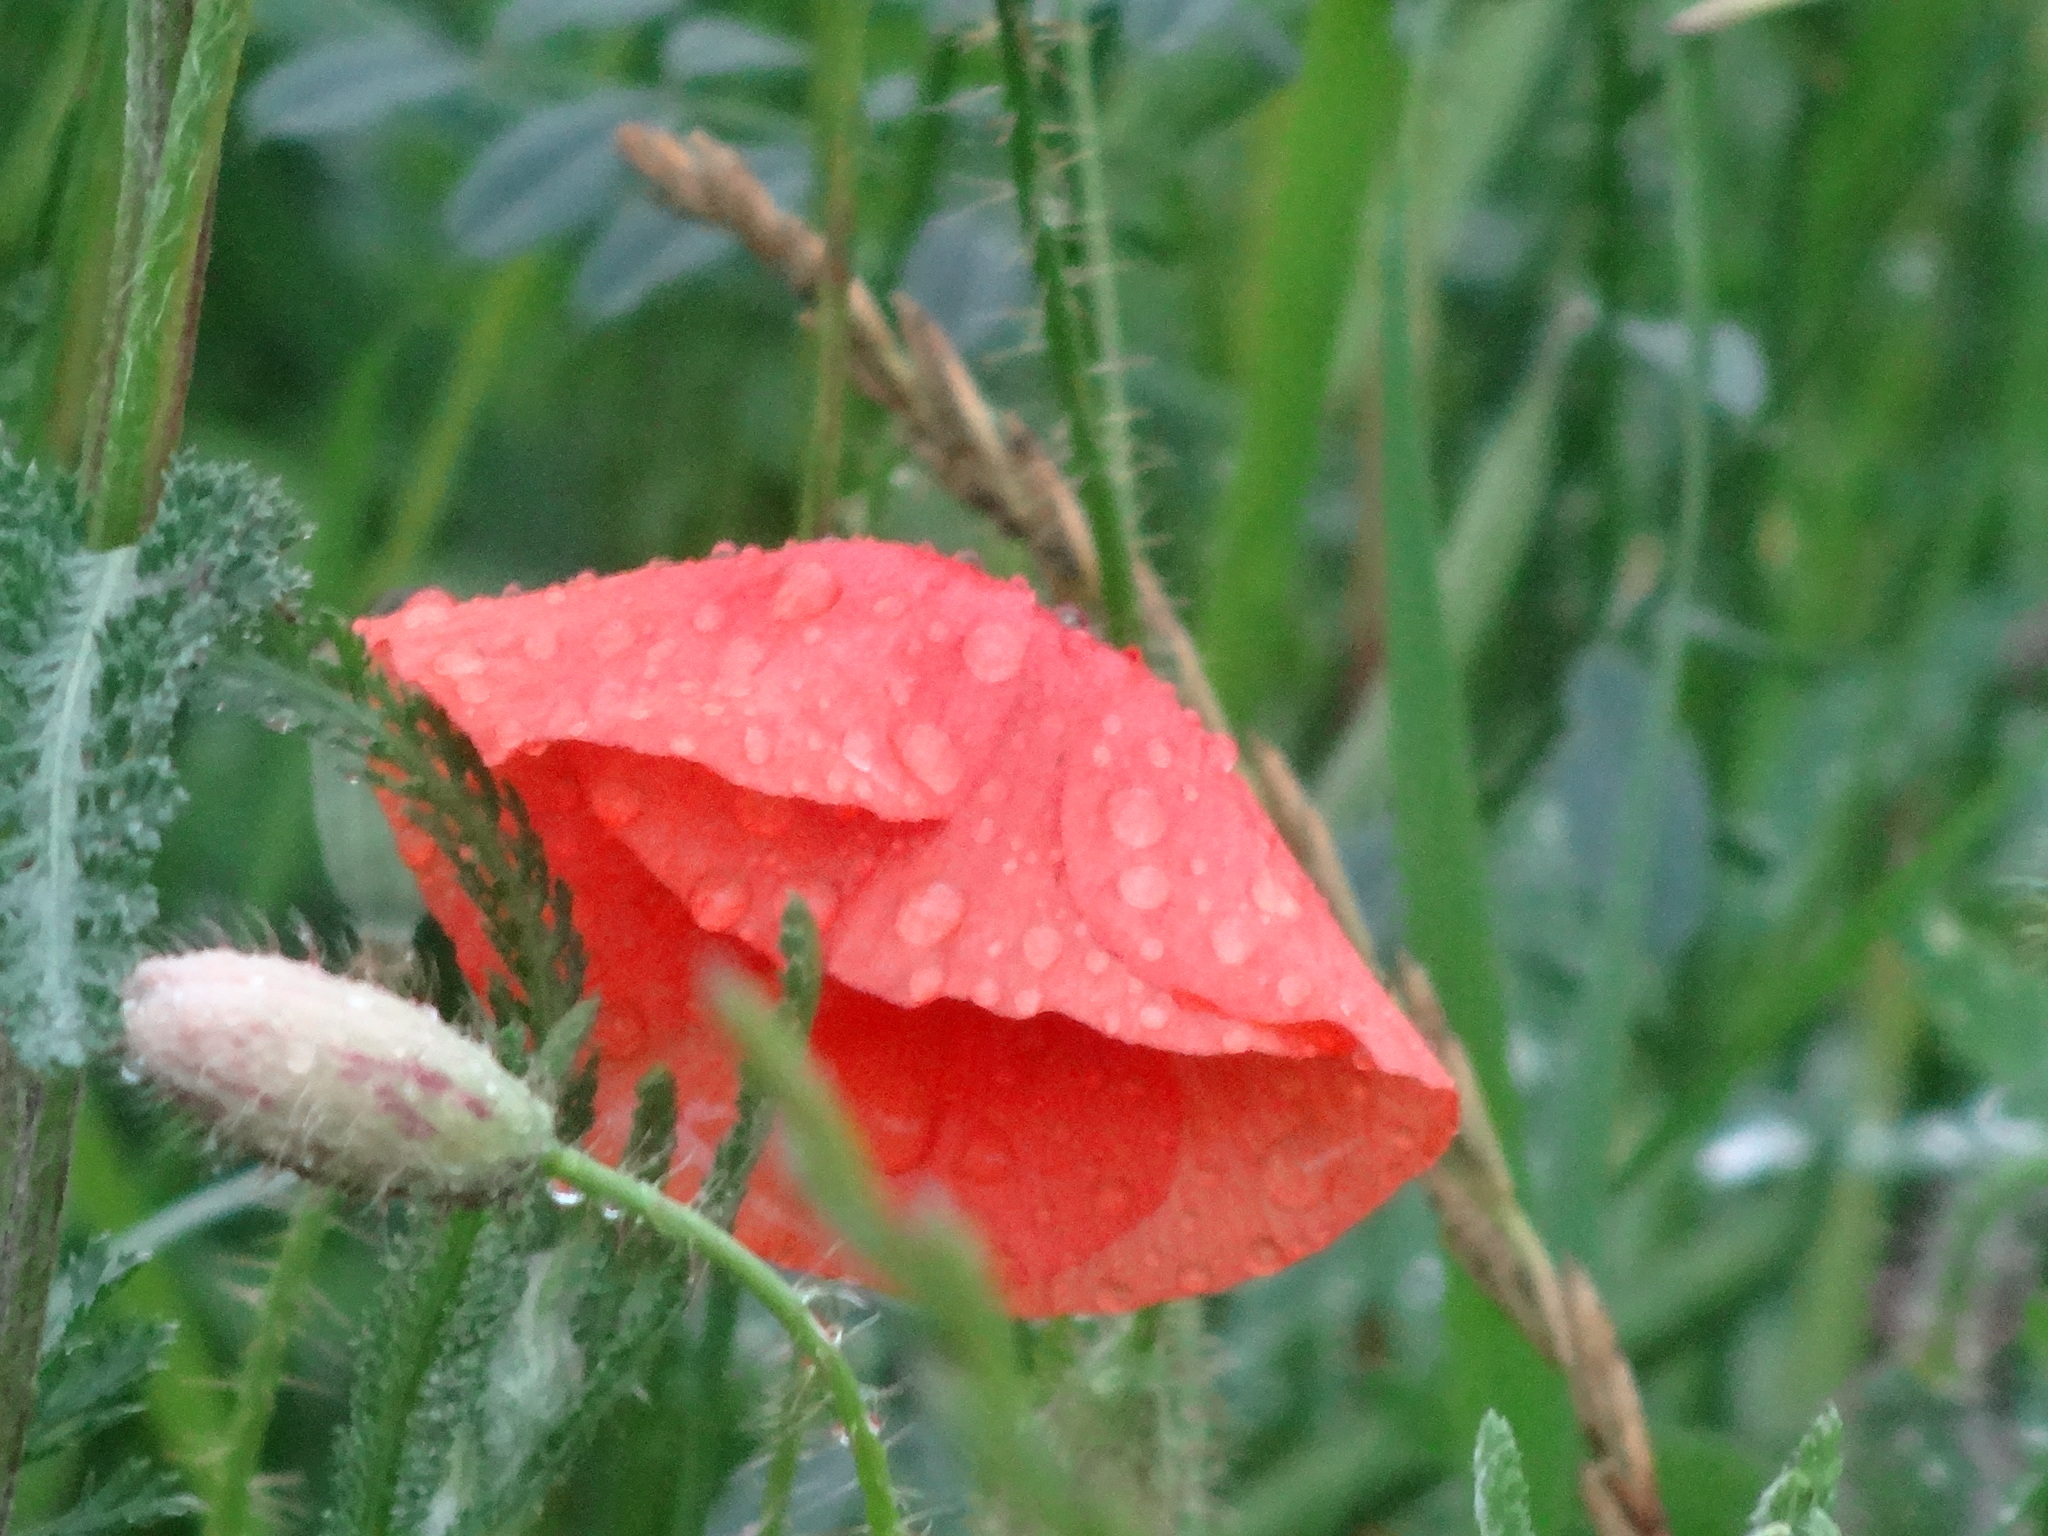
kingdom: Plantae
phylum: Tracheophyta
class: Magnoliopsida
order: Ranunculales
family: Papaveraceae
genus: Papaver
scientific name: Papaver rhoeas
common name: Corn poppy
